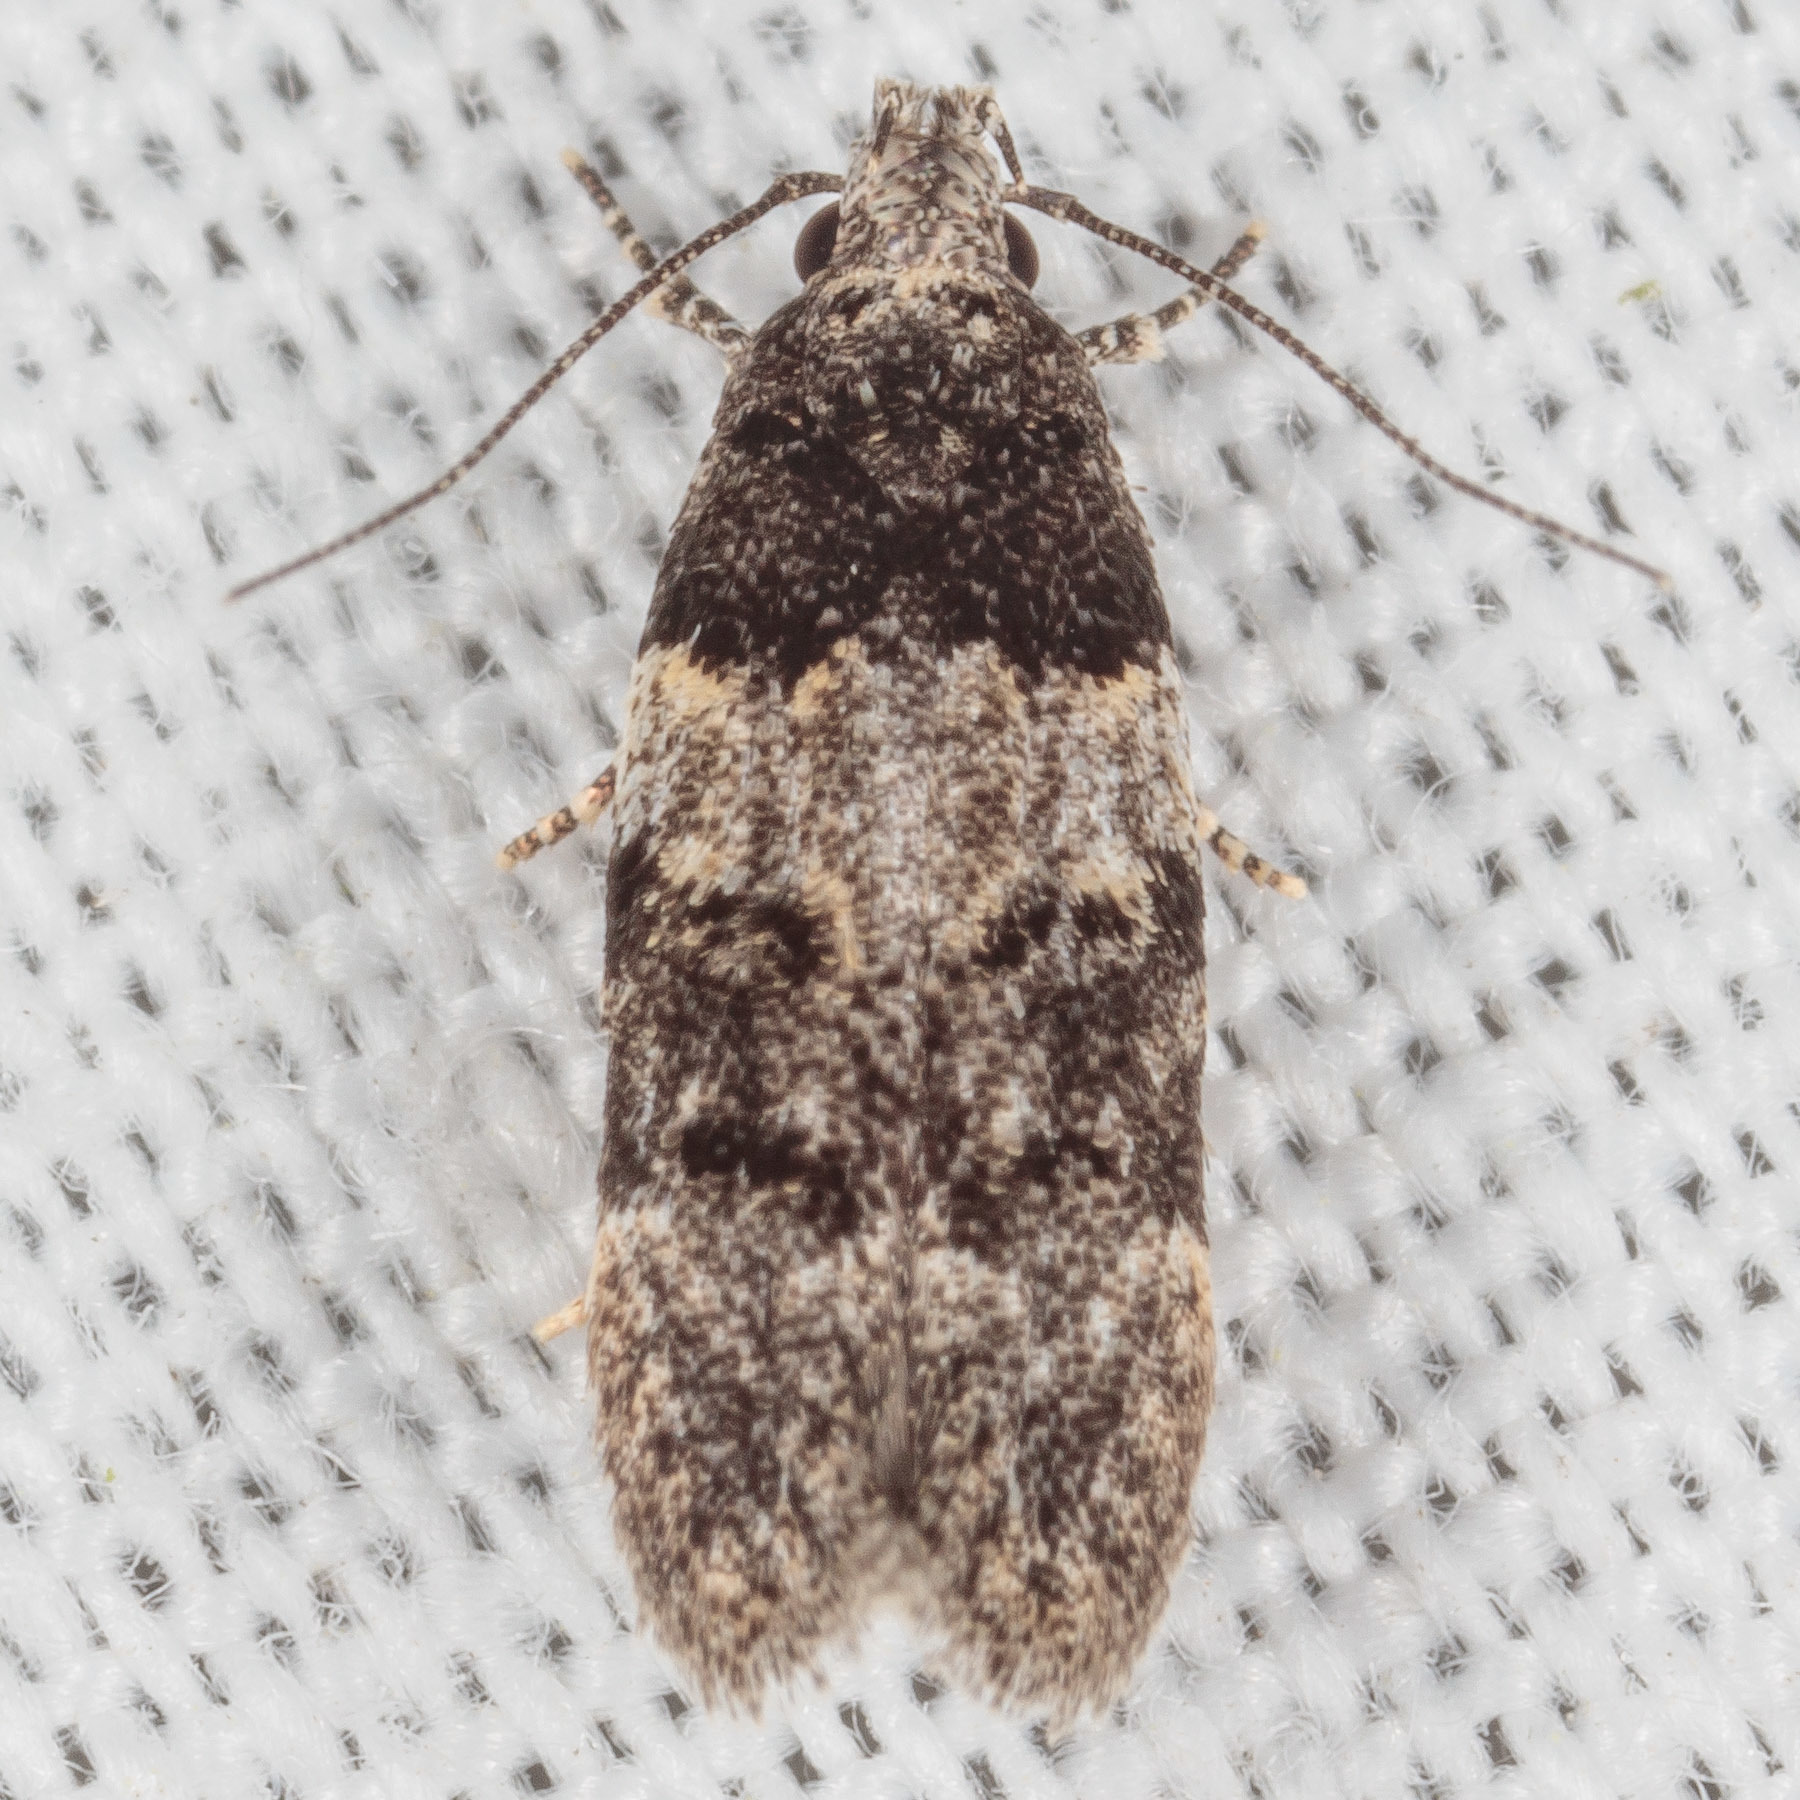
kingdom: Animalia
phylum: Arthropoda
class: Insecta
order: Lepidoptera
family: Gelechiidae
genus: Pubitelphusa
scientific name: Pubitelphusa latifasciella
